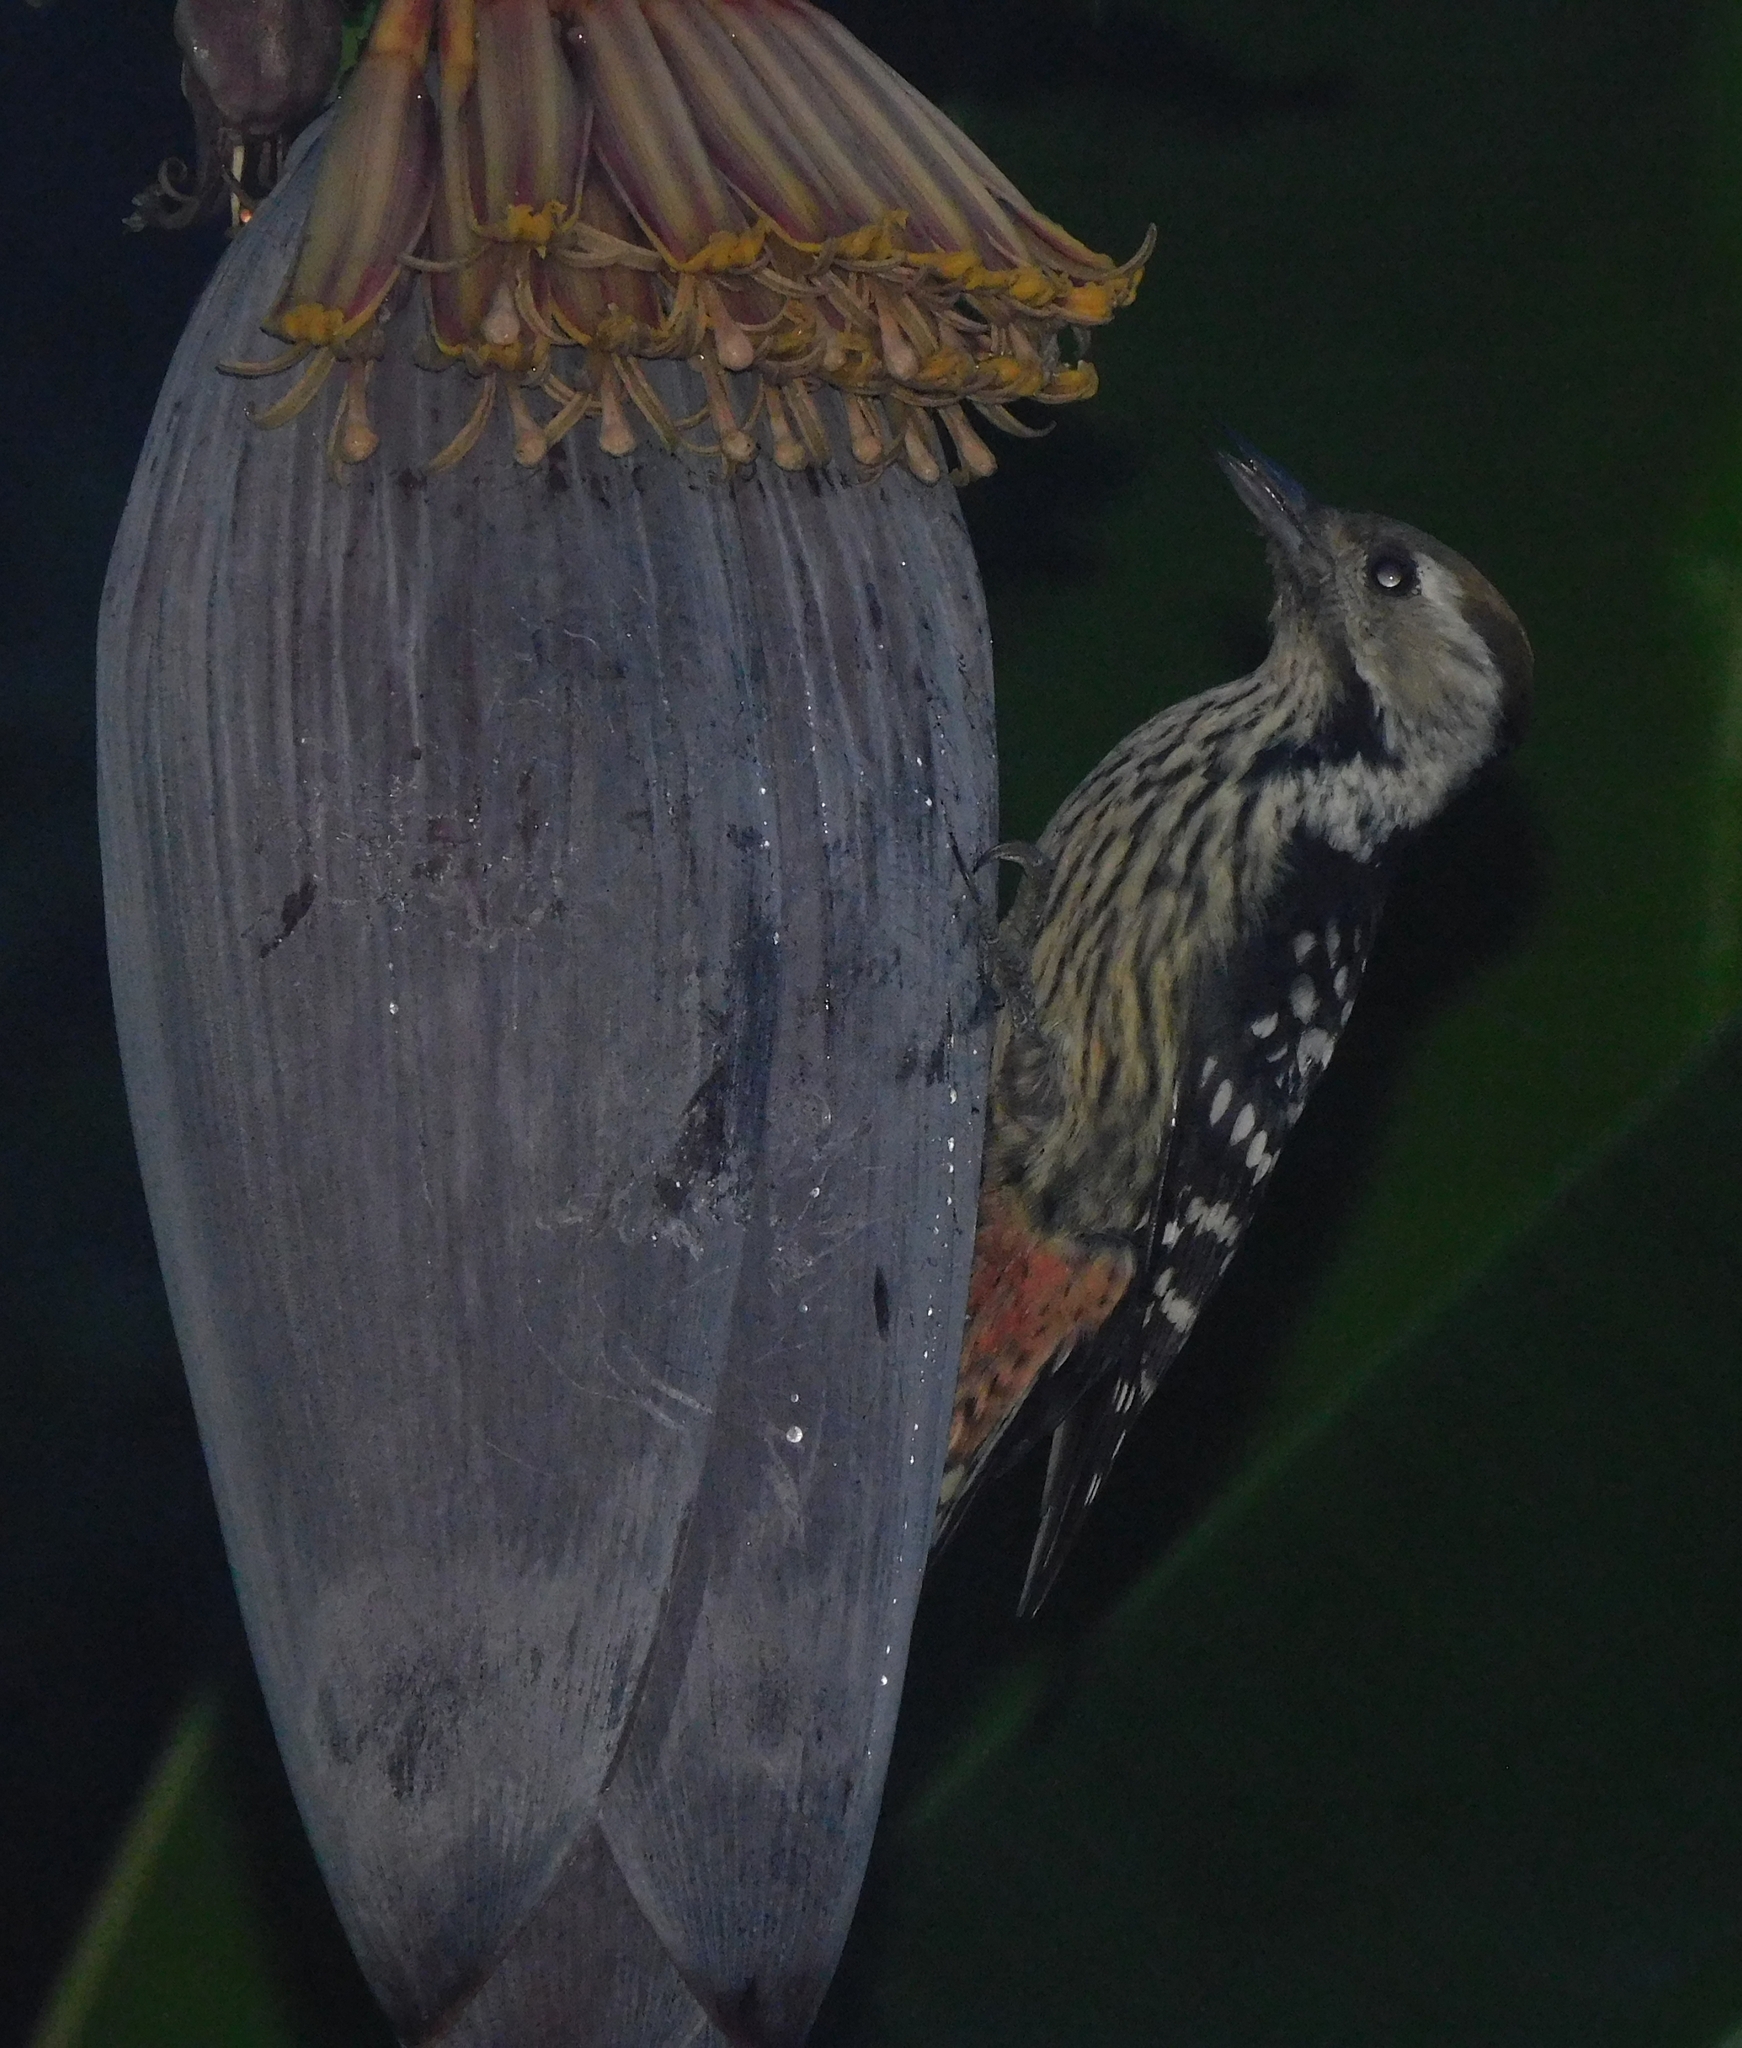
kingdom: Animalia
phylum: Chordata
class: Aves
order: Piciformes
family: Picidae
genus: Dendrocoptes
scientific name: Dendrocoptes auriceps
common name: Brown-fronted woodpecker
